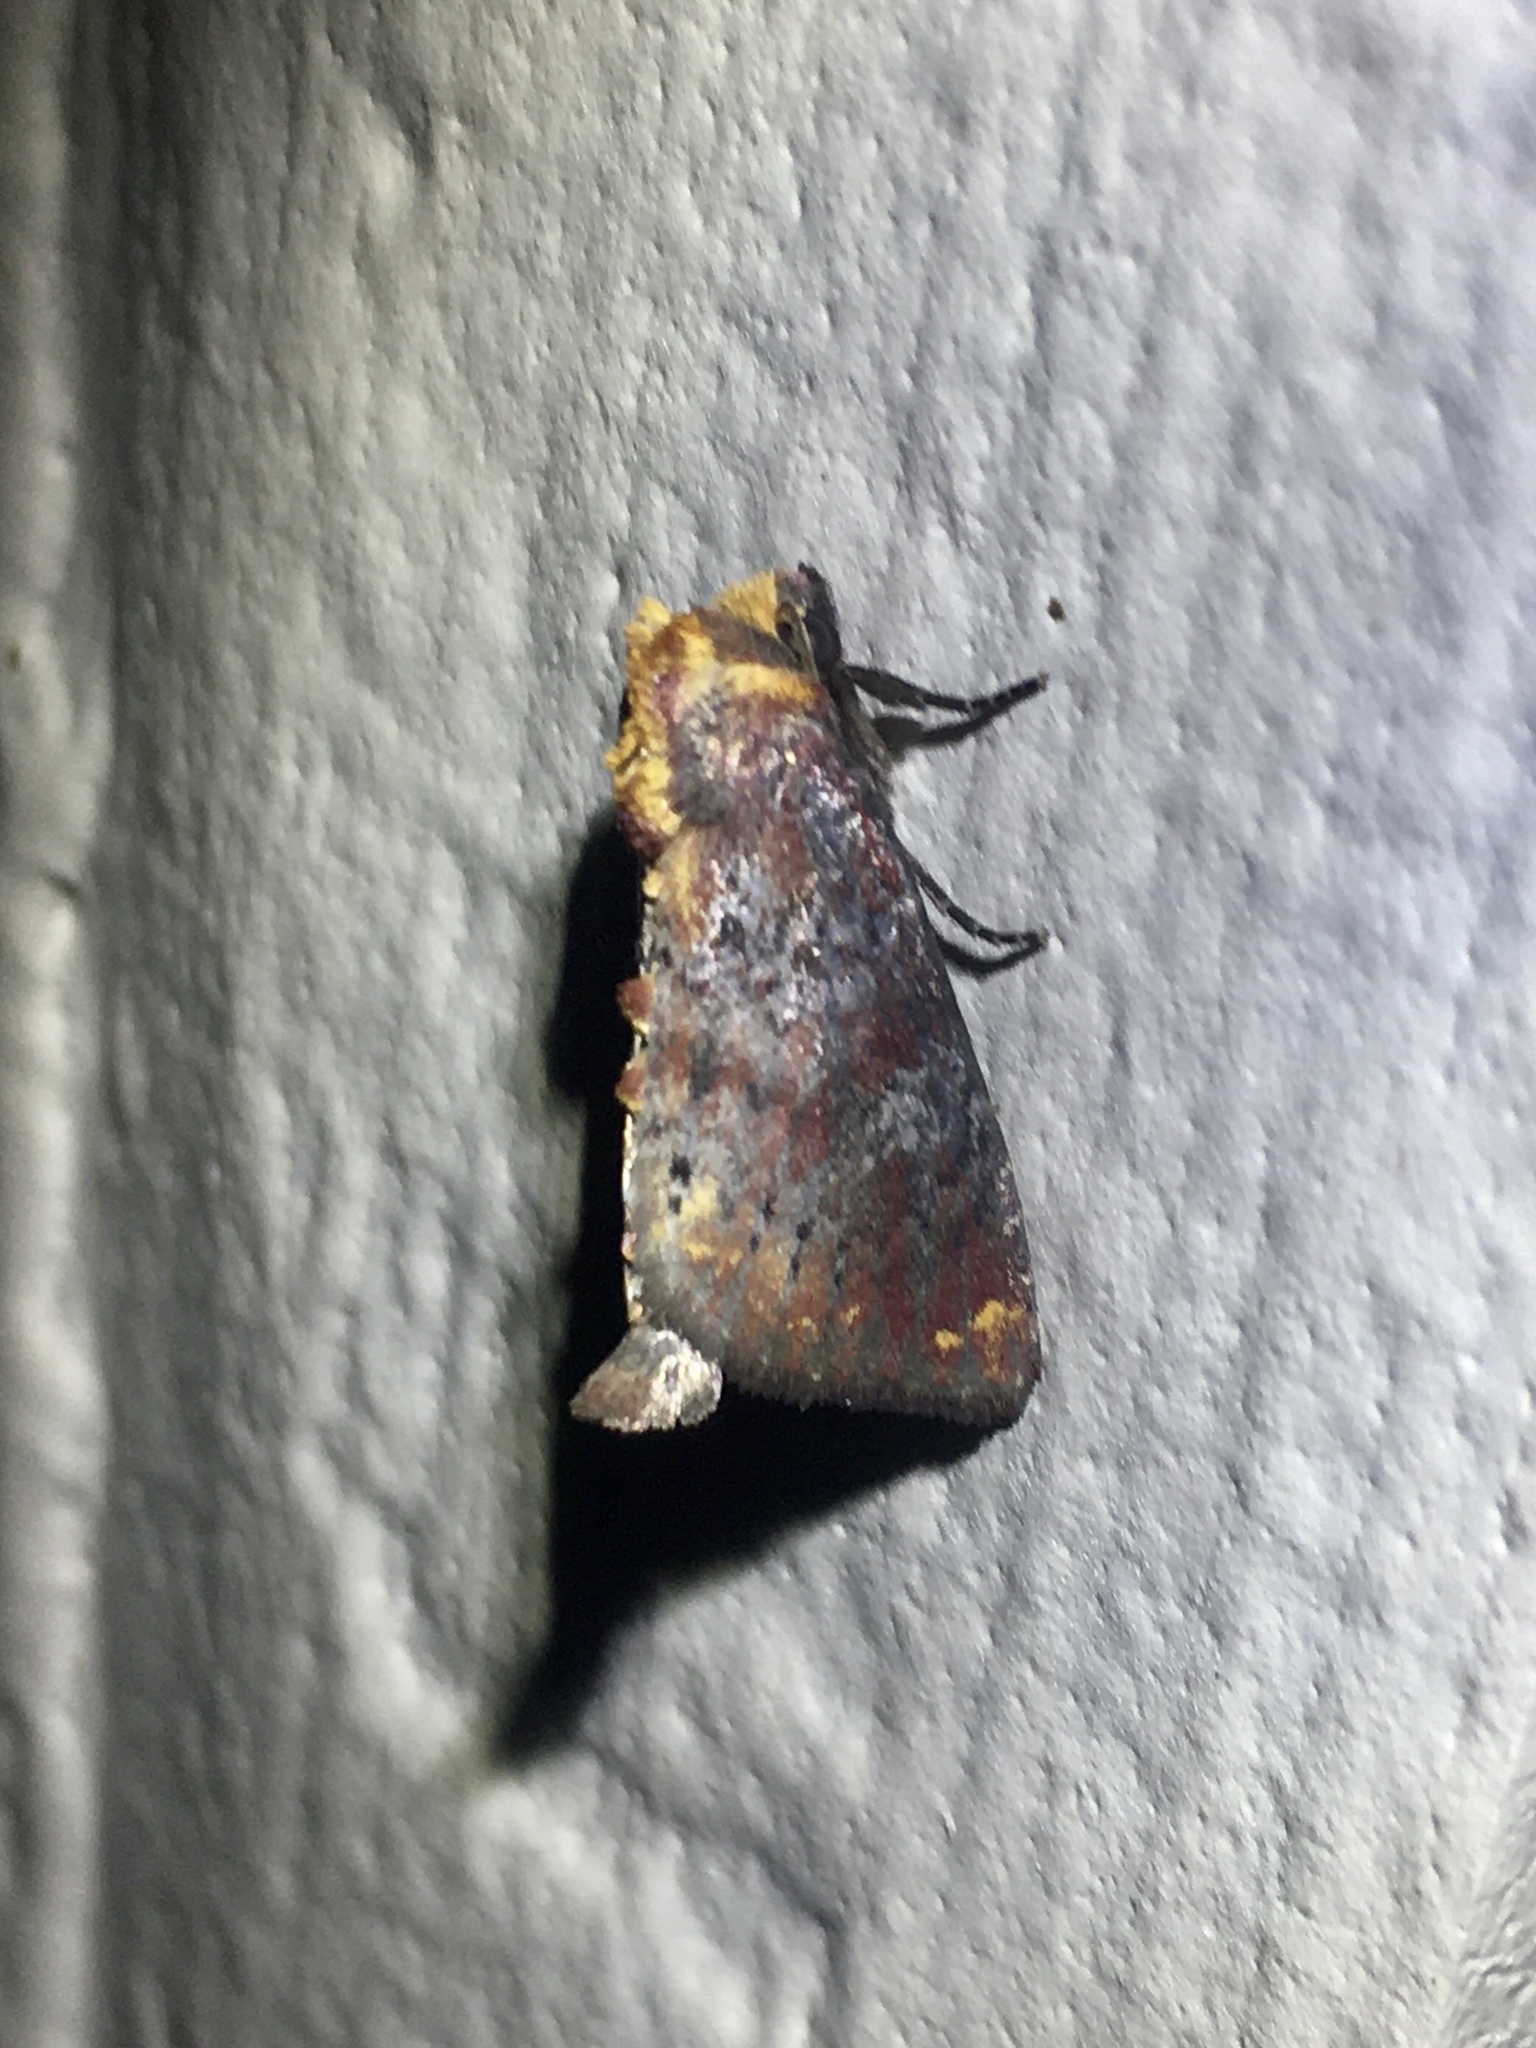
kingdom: Animalia
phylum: Arthropoda
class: Insecta
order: Lepidoptera
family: Noctuidae
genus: Achatodes
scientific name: Achatodes zeae
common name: Elder shoot borer
